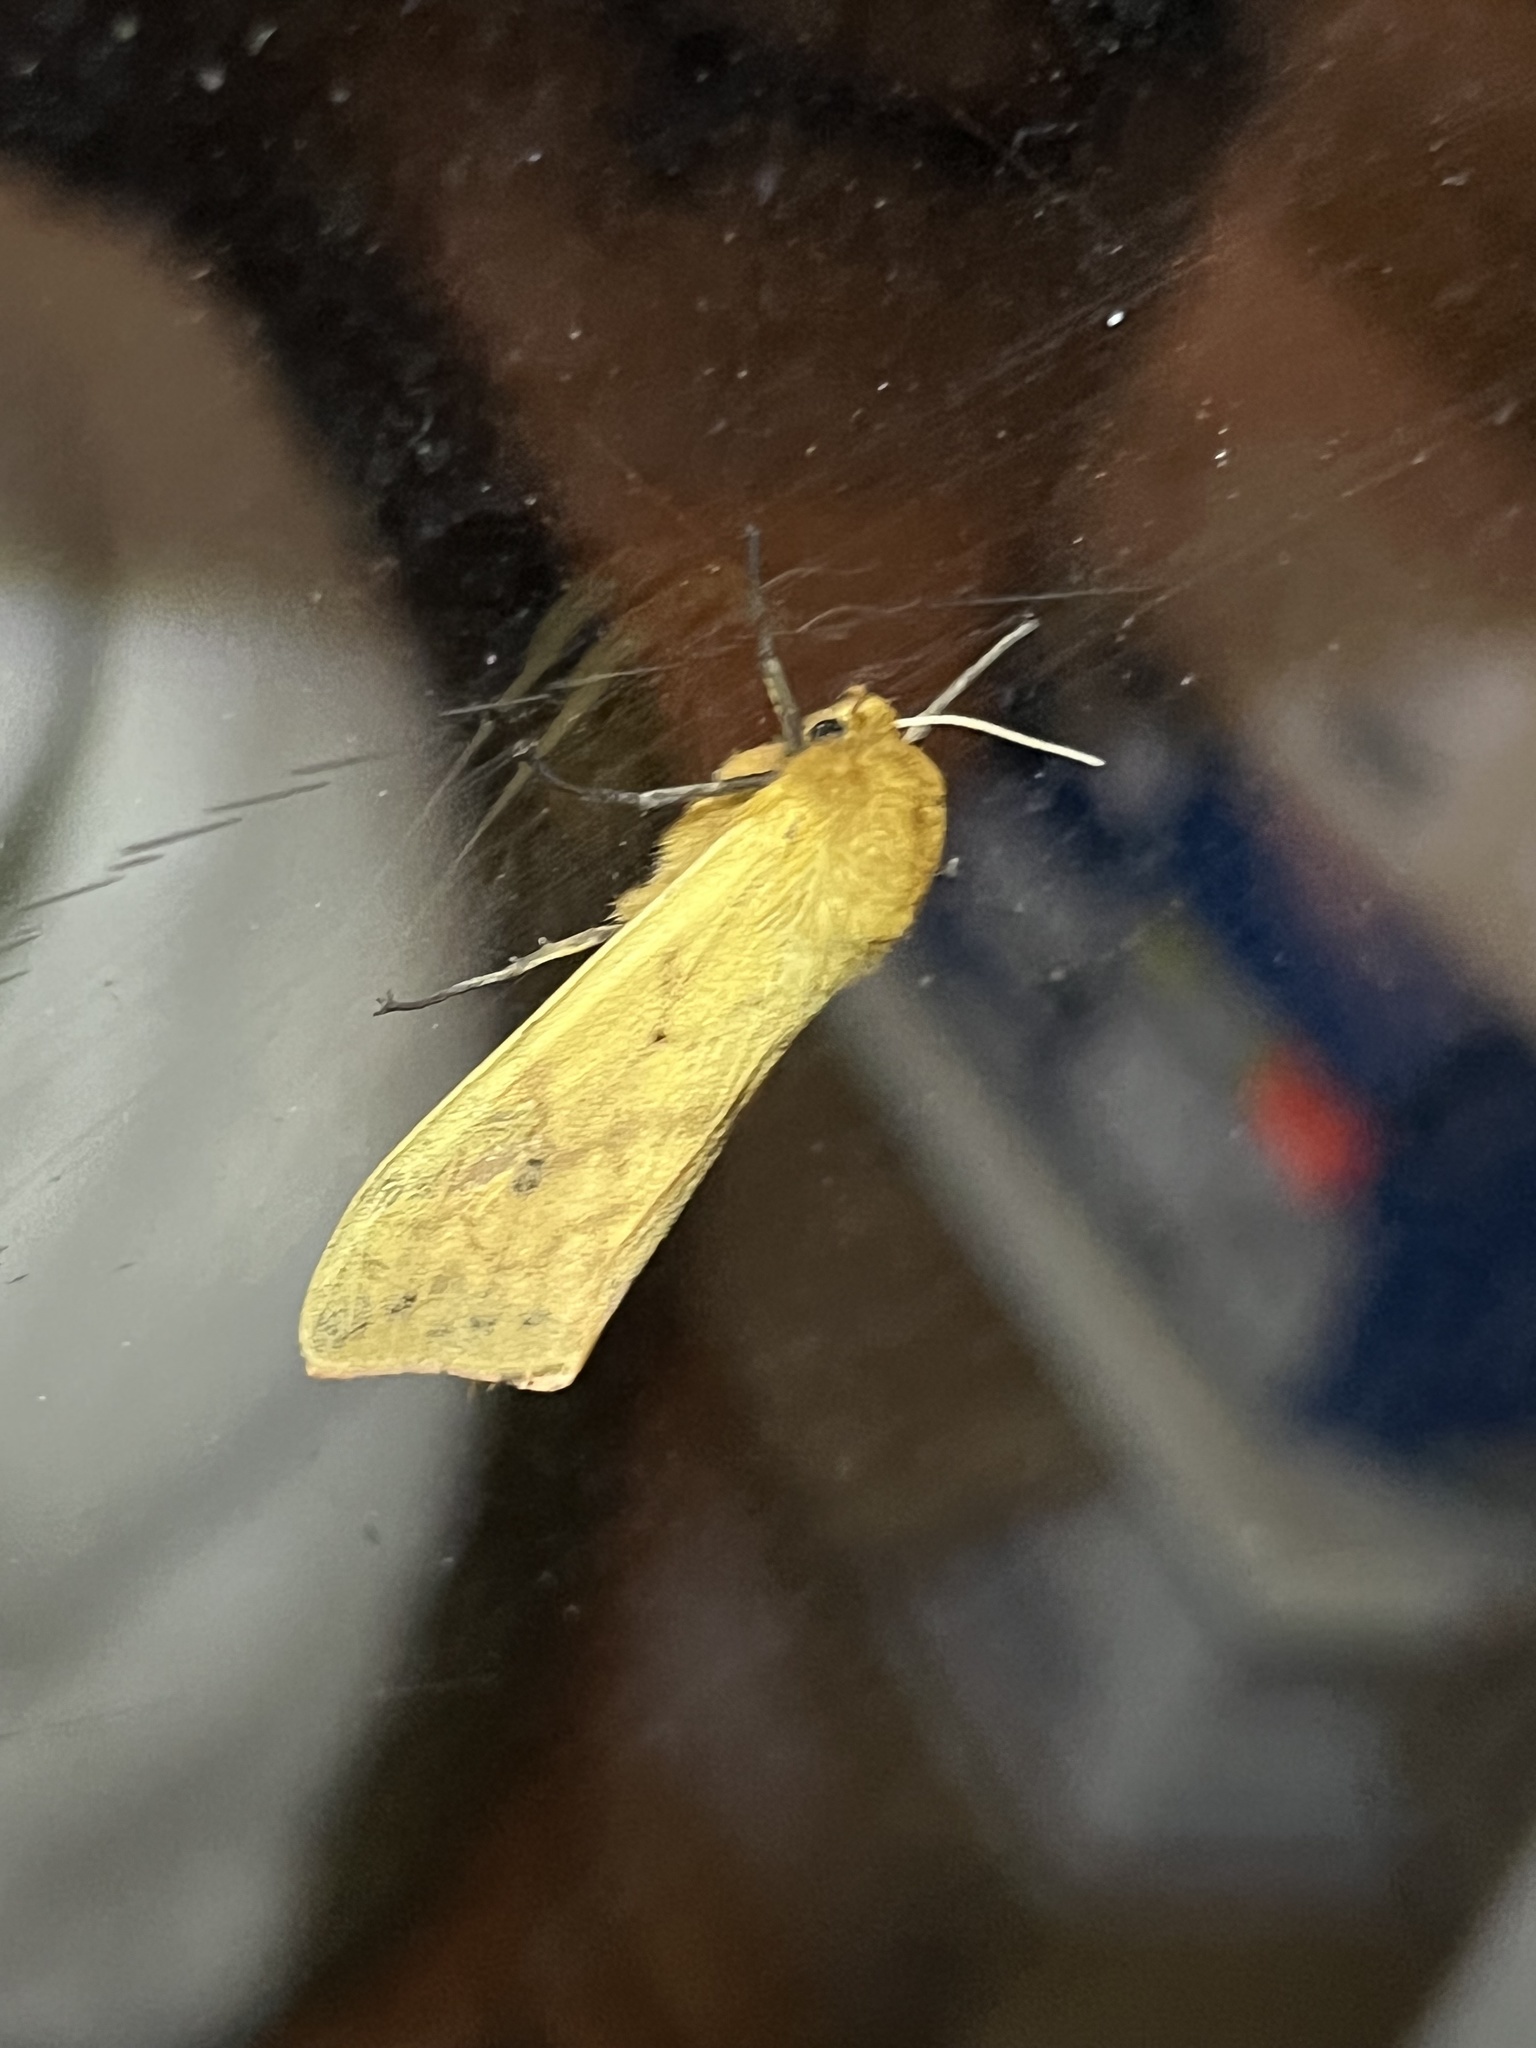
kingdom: Animalia
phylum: Arthropoda
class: Insecta
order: Lepidoptera
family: Erebidae
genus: Pyrrharctia
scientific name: Pyrrharctia isabella
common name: Isabella tiger moth
